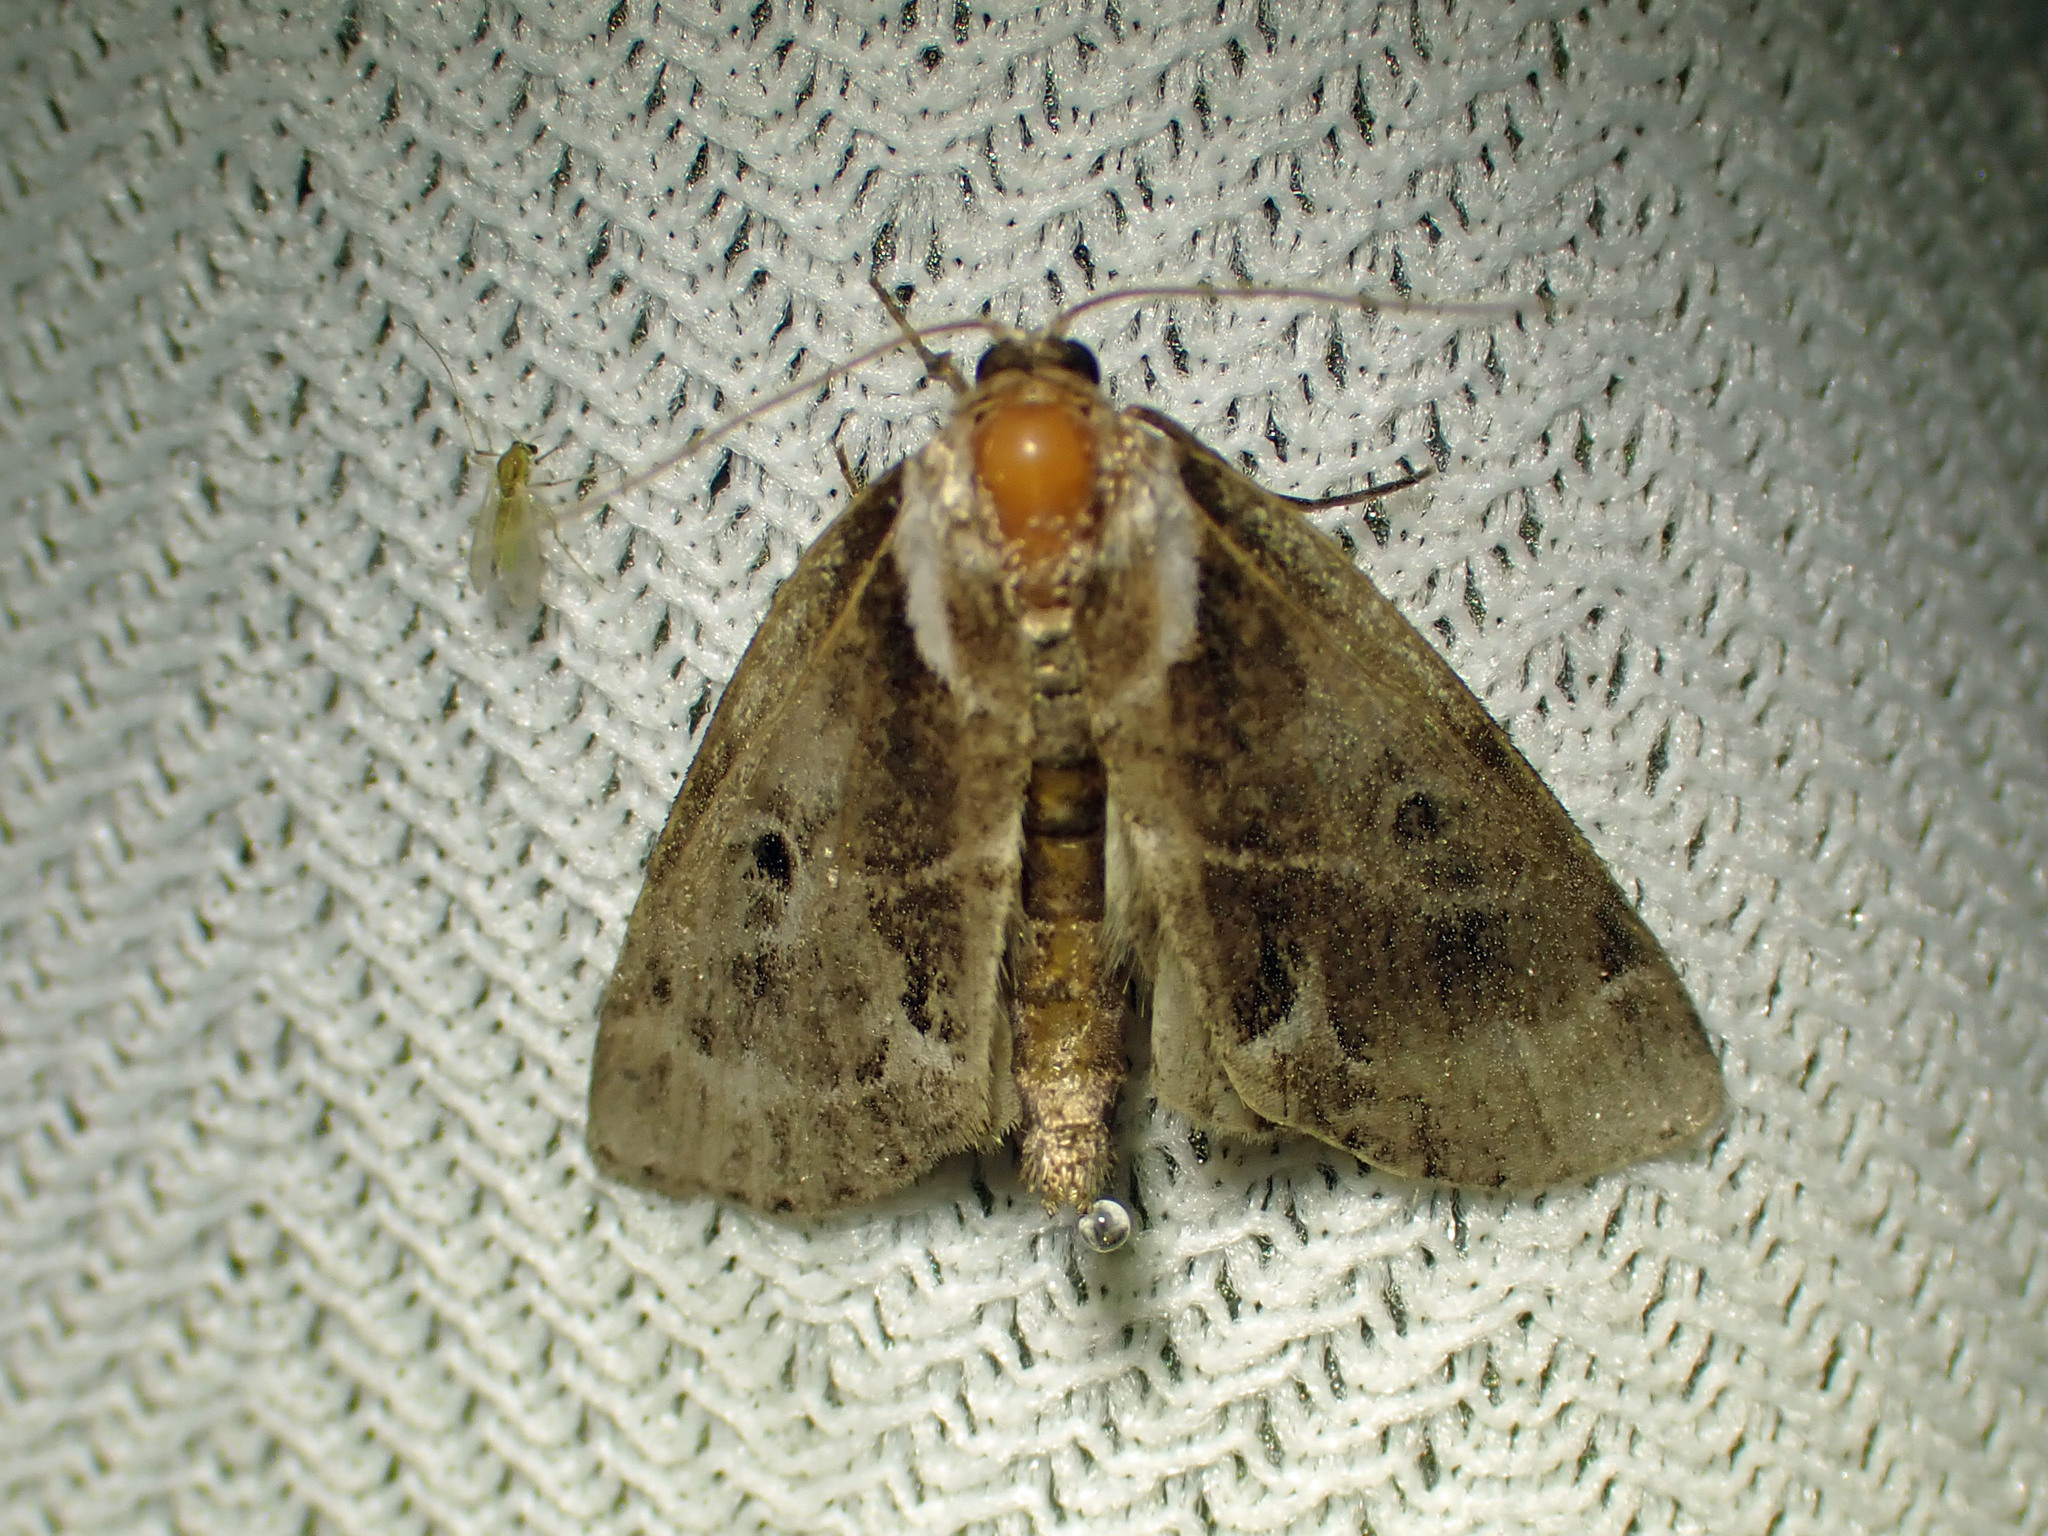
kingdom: Animalia
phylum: Arthropoda
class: Insecta
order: Lepidoptera
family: Nolidae
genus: Baileya
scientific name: Baileya doubledayi
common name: Doubleday's baileya moth
